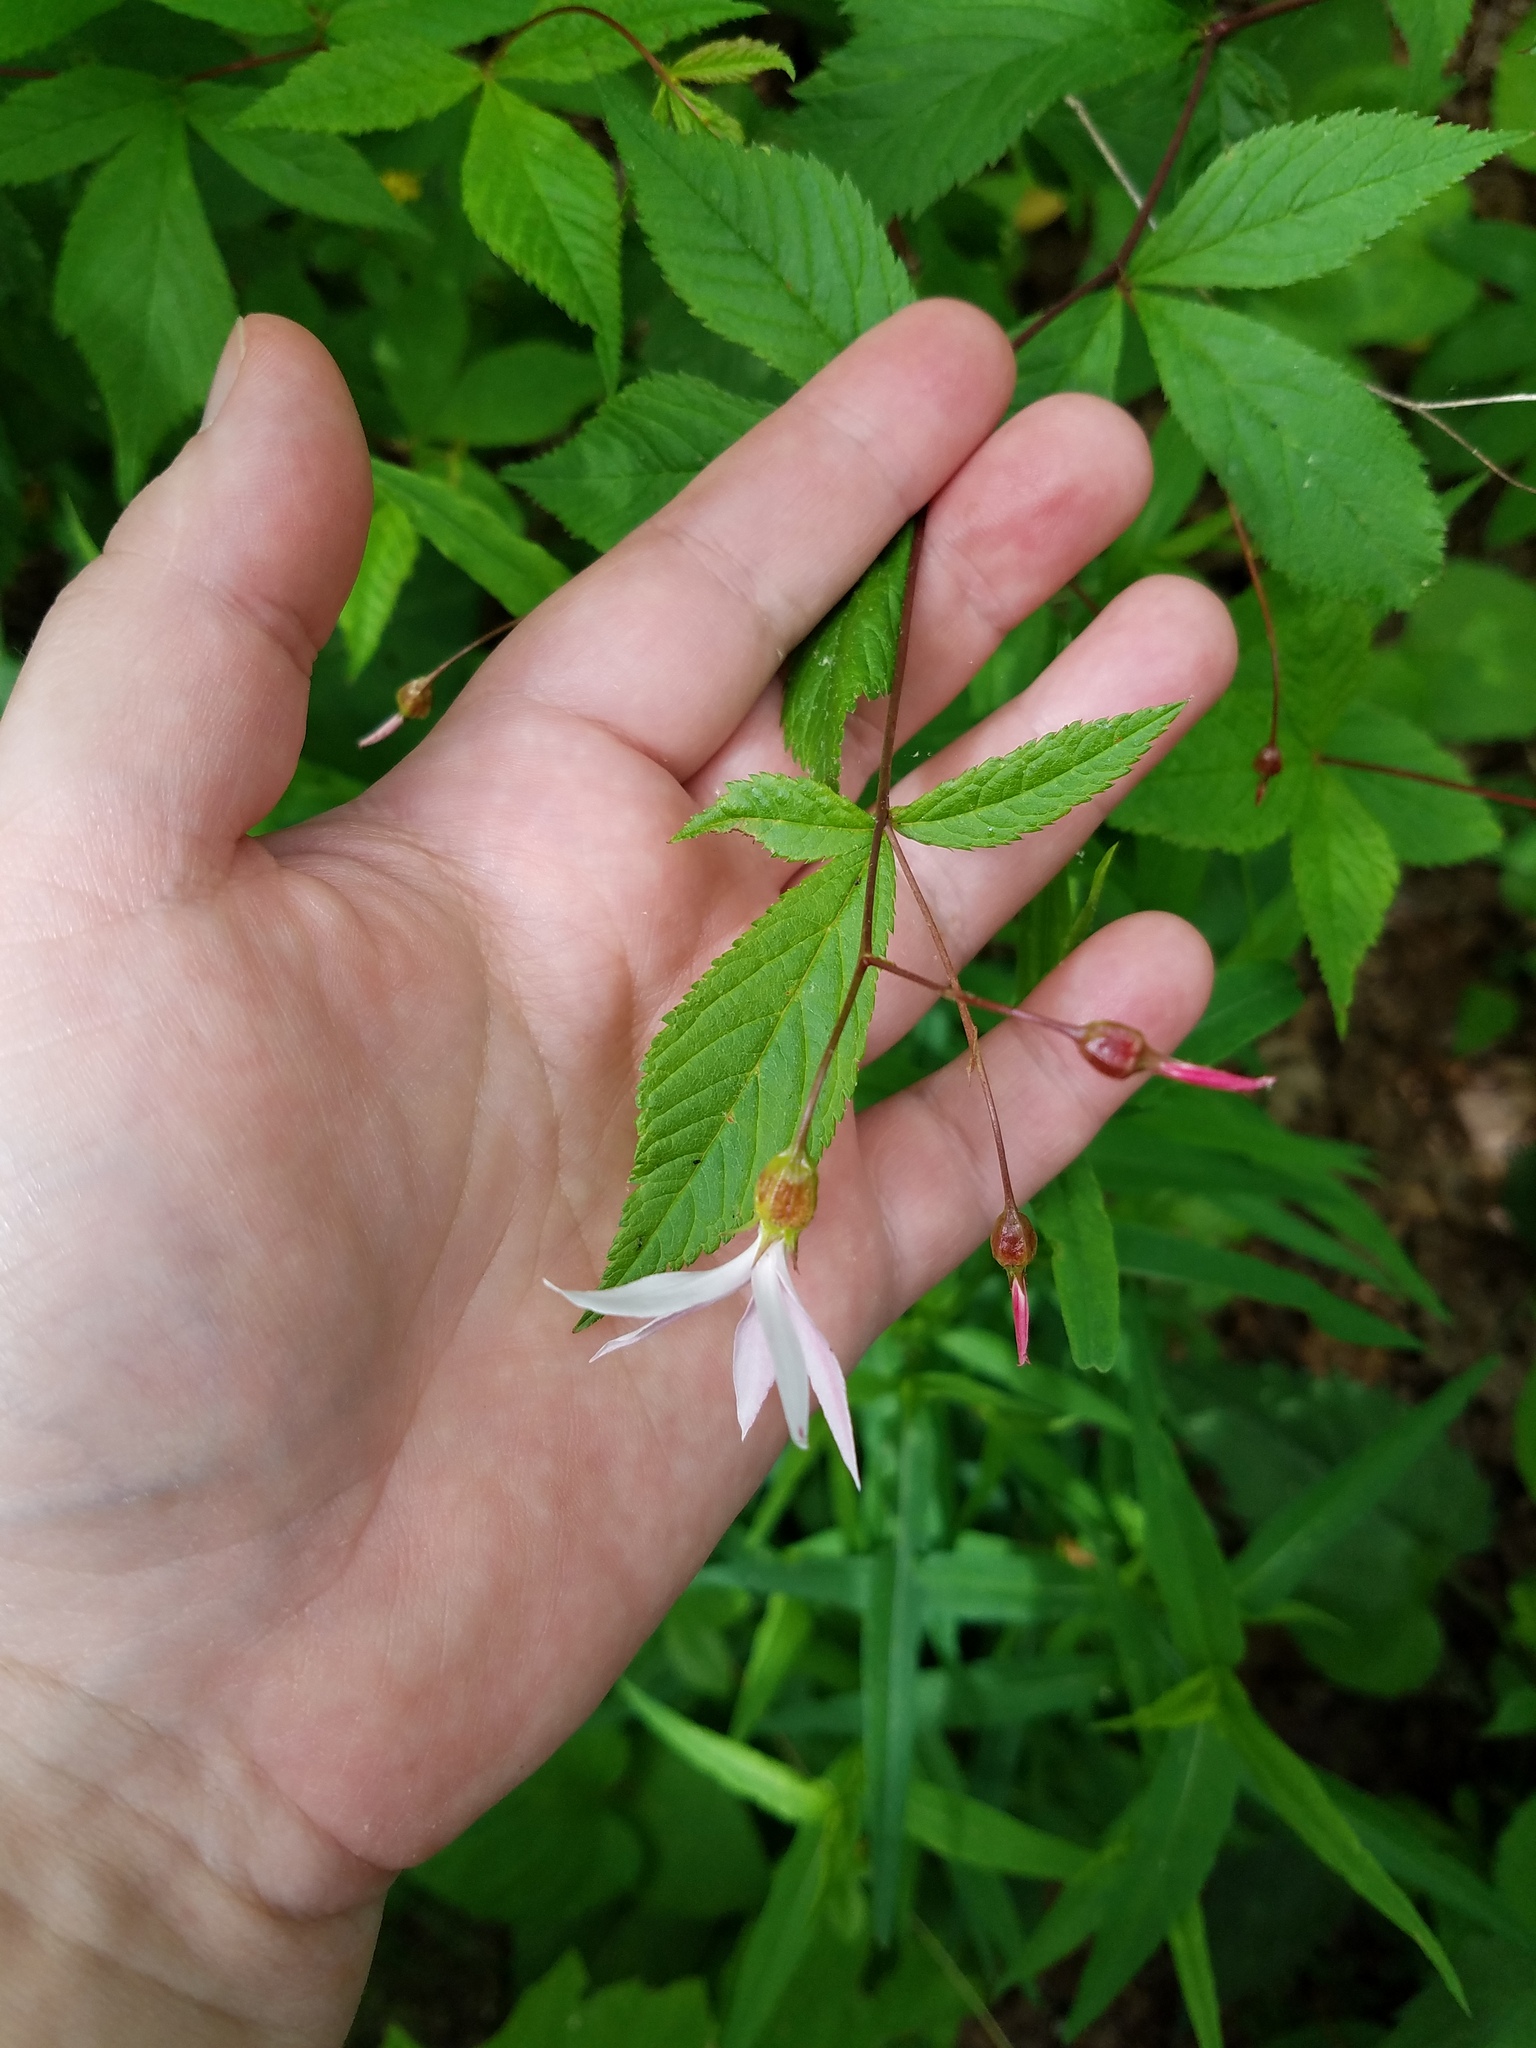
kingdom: Plantae
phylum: Tracheophyta
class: Magnoliopsida
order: Rosales
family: Rosaceae
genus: Gillenia
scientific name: Gillenia trifoliata
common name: Bowman's-root
